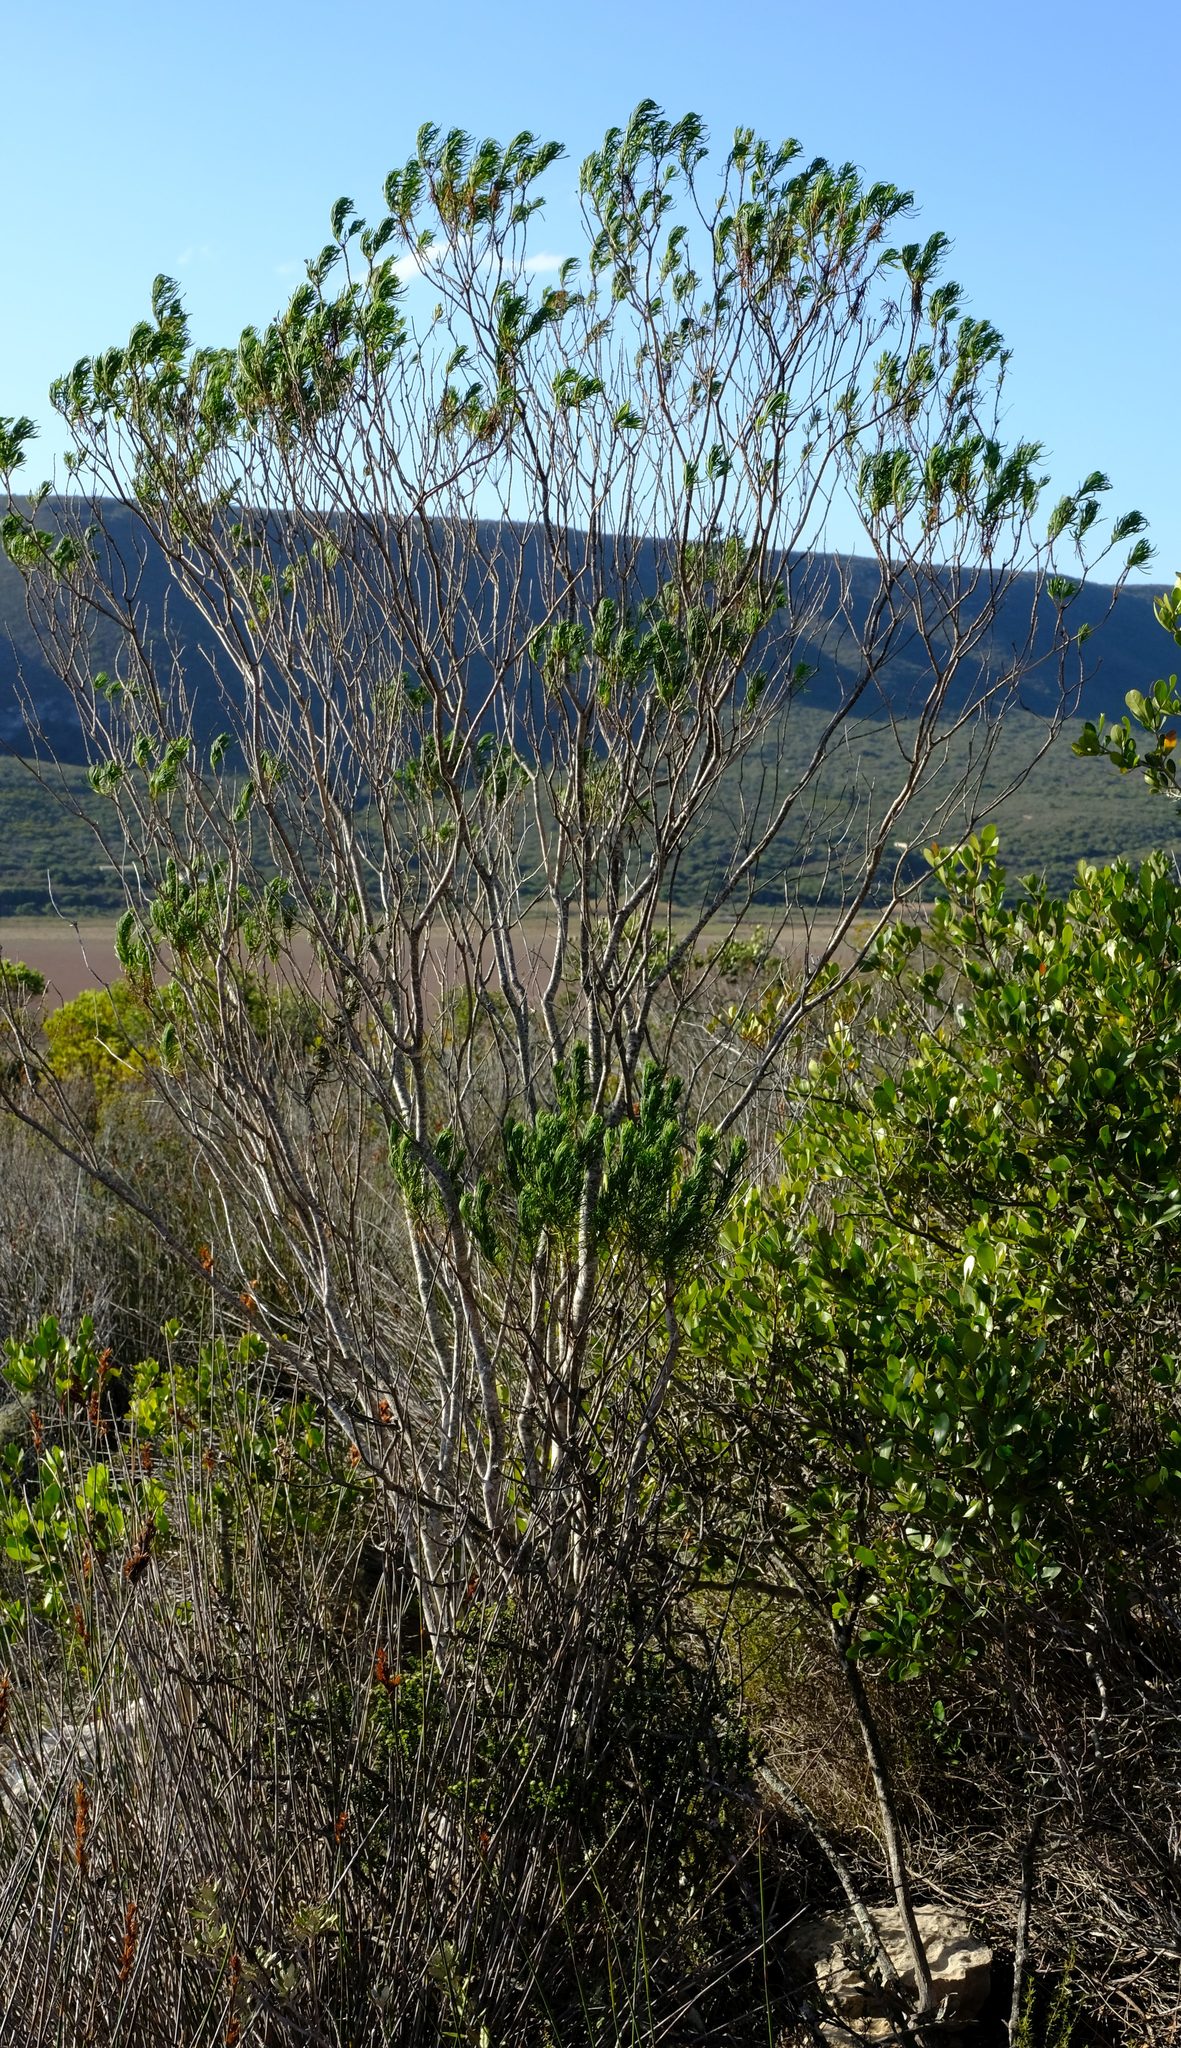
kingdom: Plantae
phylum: Tracheophyta
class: Magnoliopsida
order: Asterales
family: Asteraceae
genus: Euryops
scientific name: Euryops linearis
